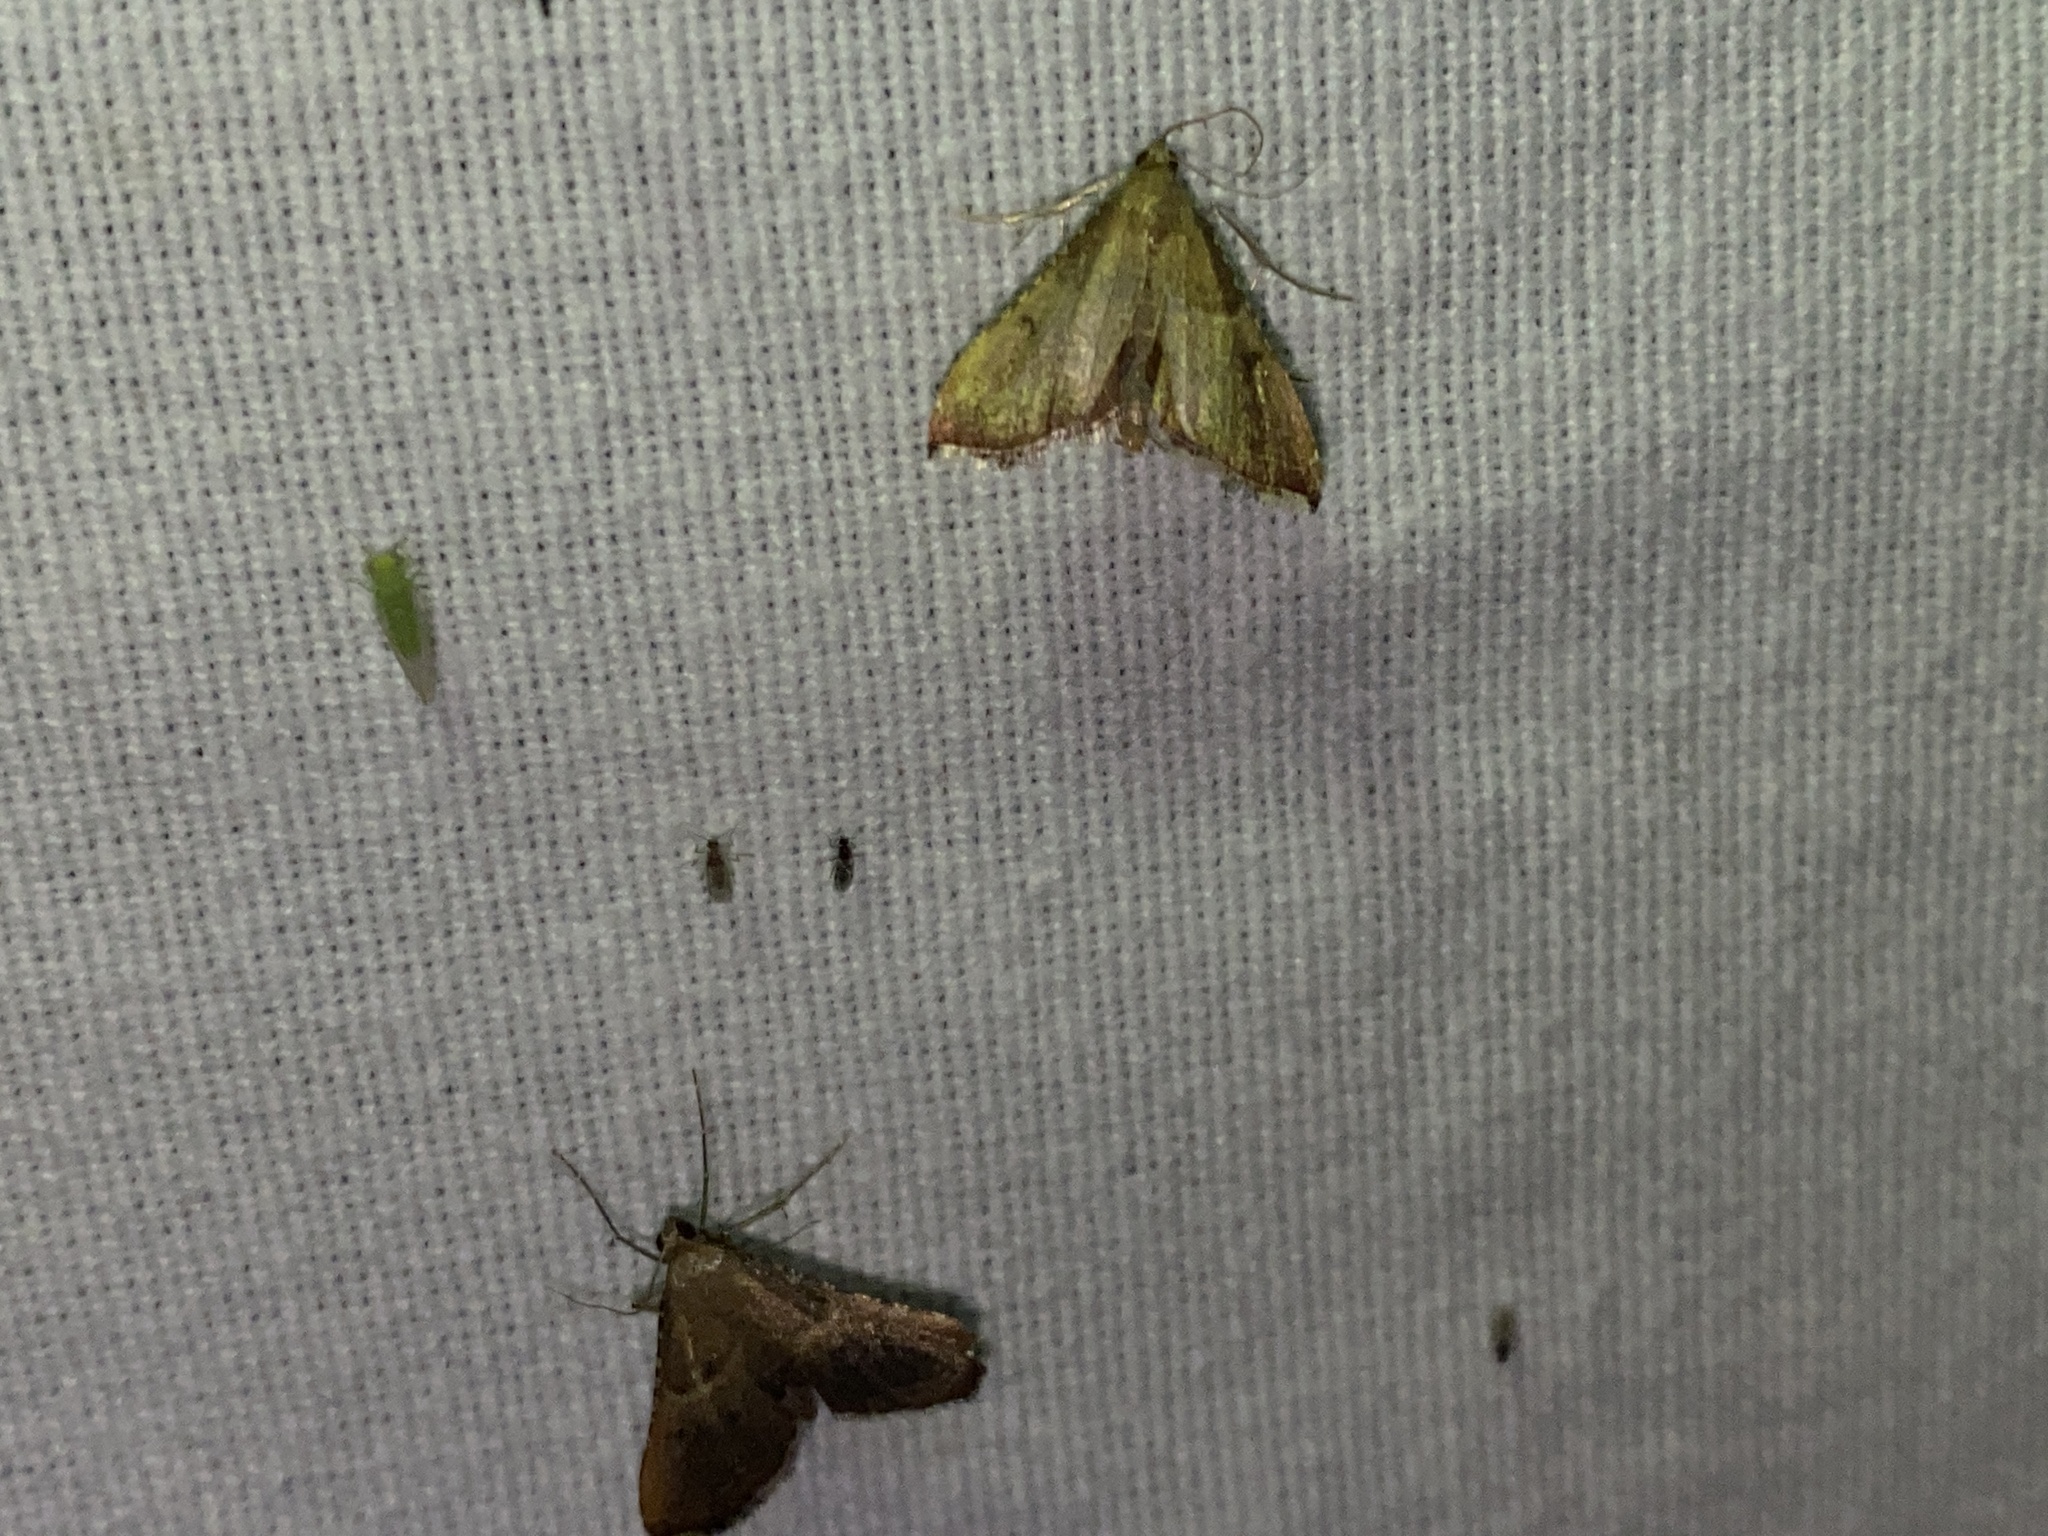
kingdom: Animalia
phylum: Arthropoda
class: Insecta
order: Lepidoptera
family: Pyralidae
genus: Endotricha
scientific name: Endotricha flammealis
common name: Rosy tabby
